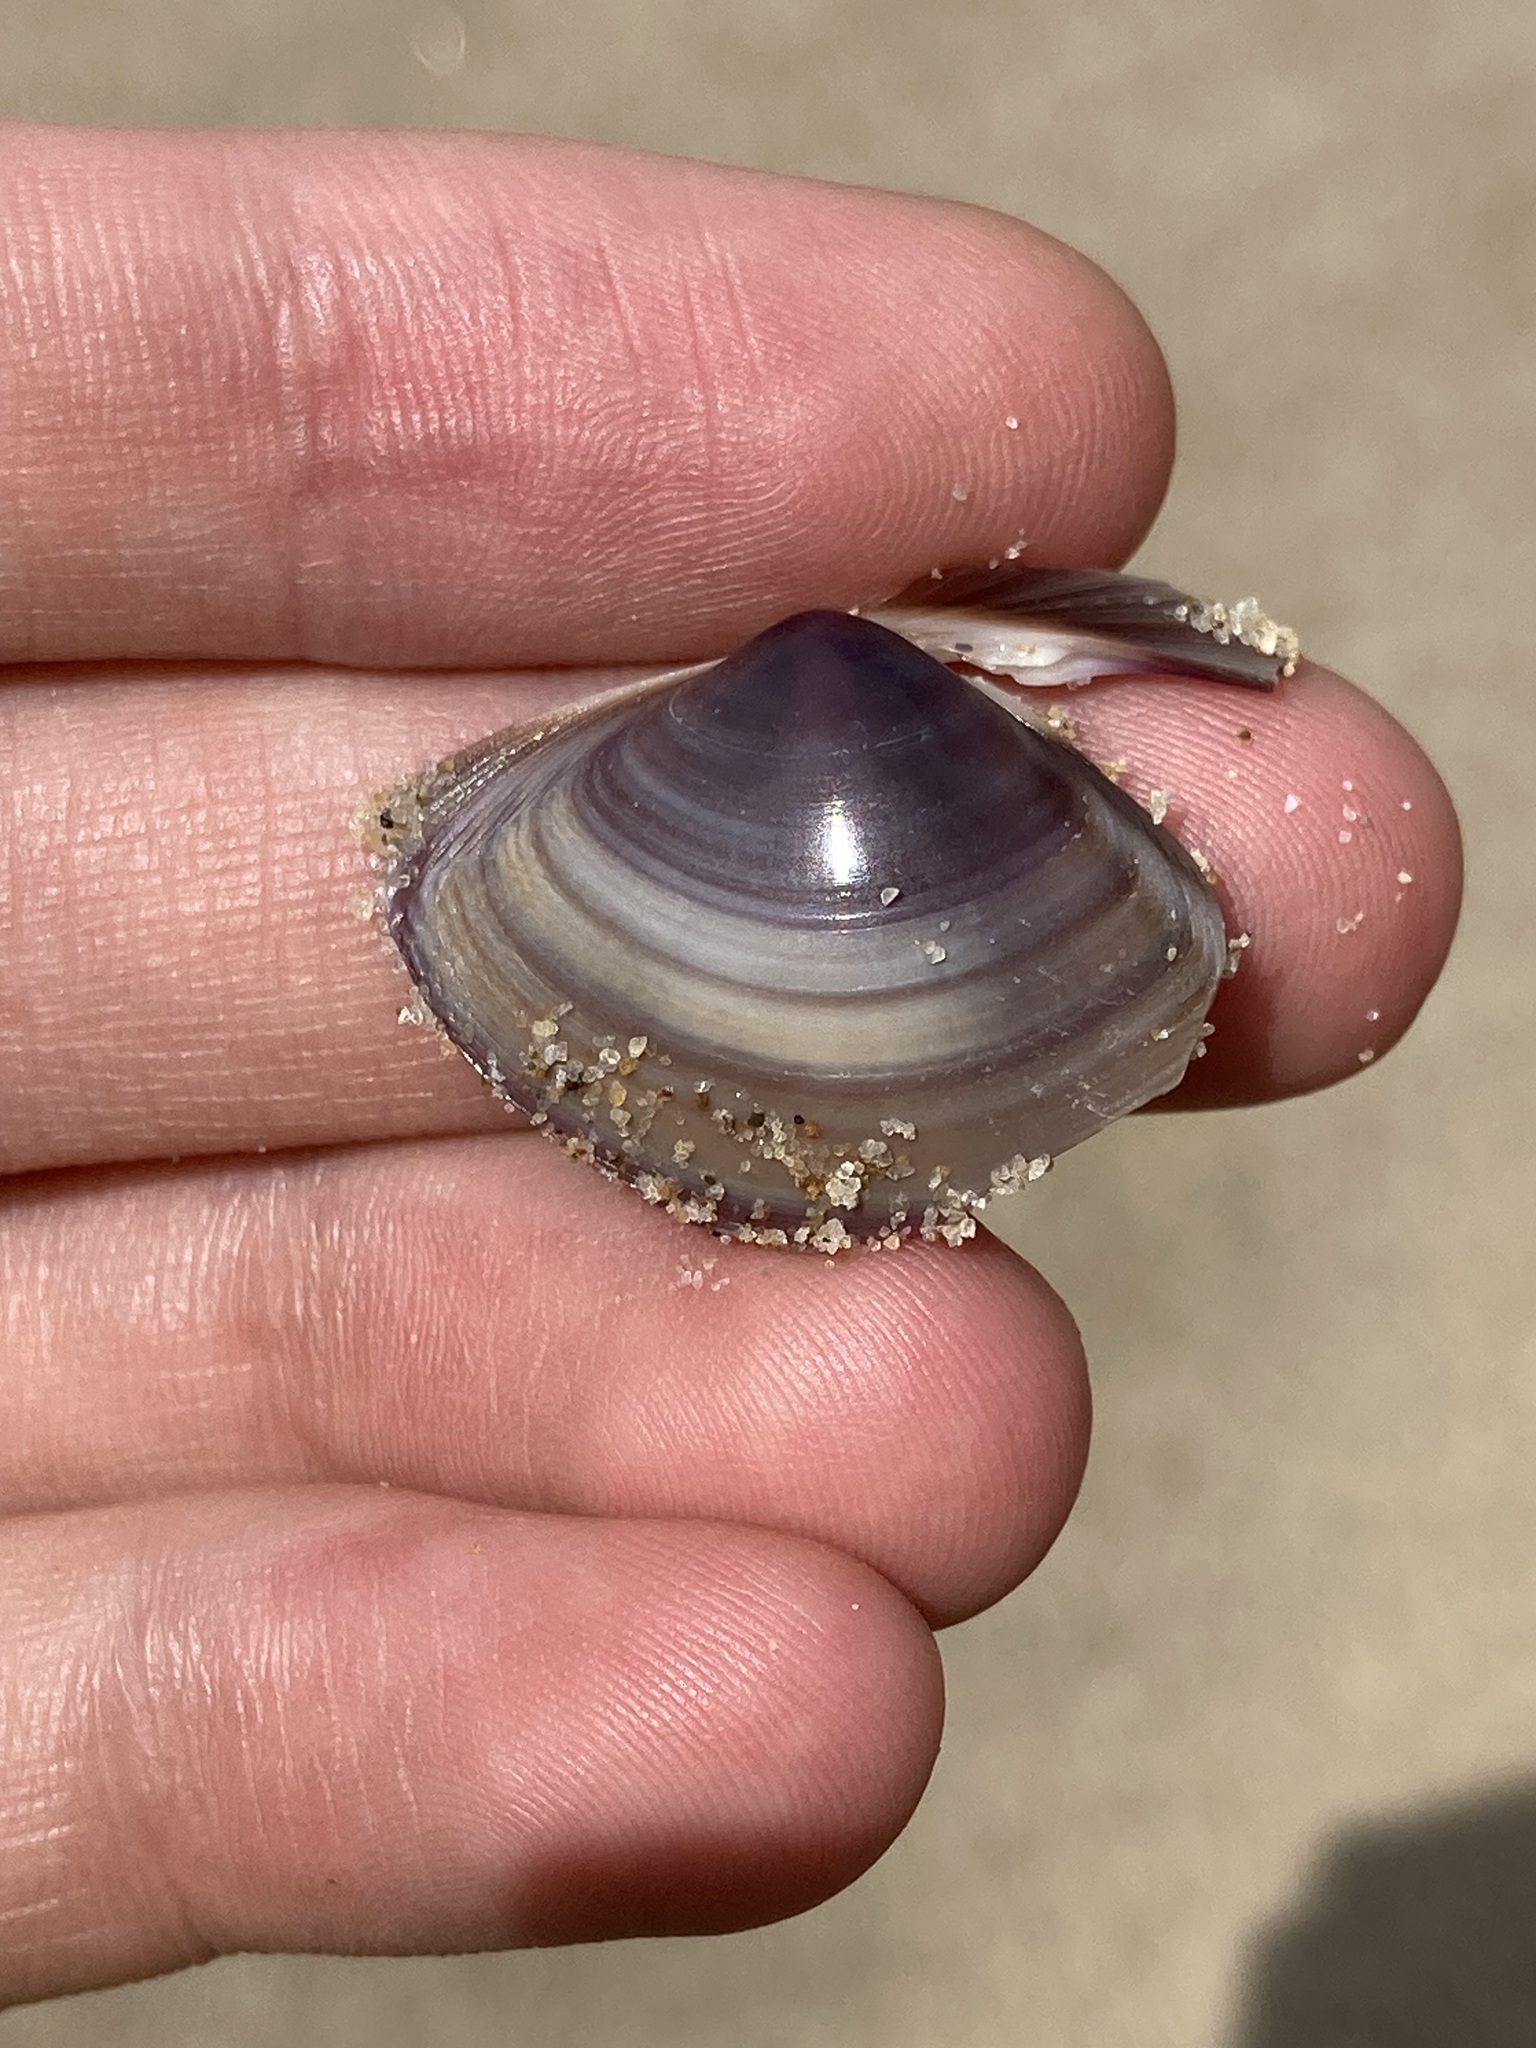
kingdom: Animalia
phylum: Mollusca
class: Bivalvia
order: Venerida
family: Mactridae
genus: Austromactra
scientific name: Austromactra contraria
